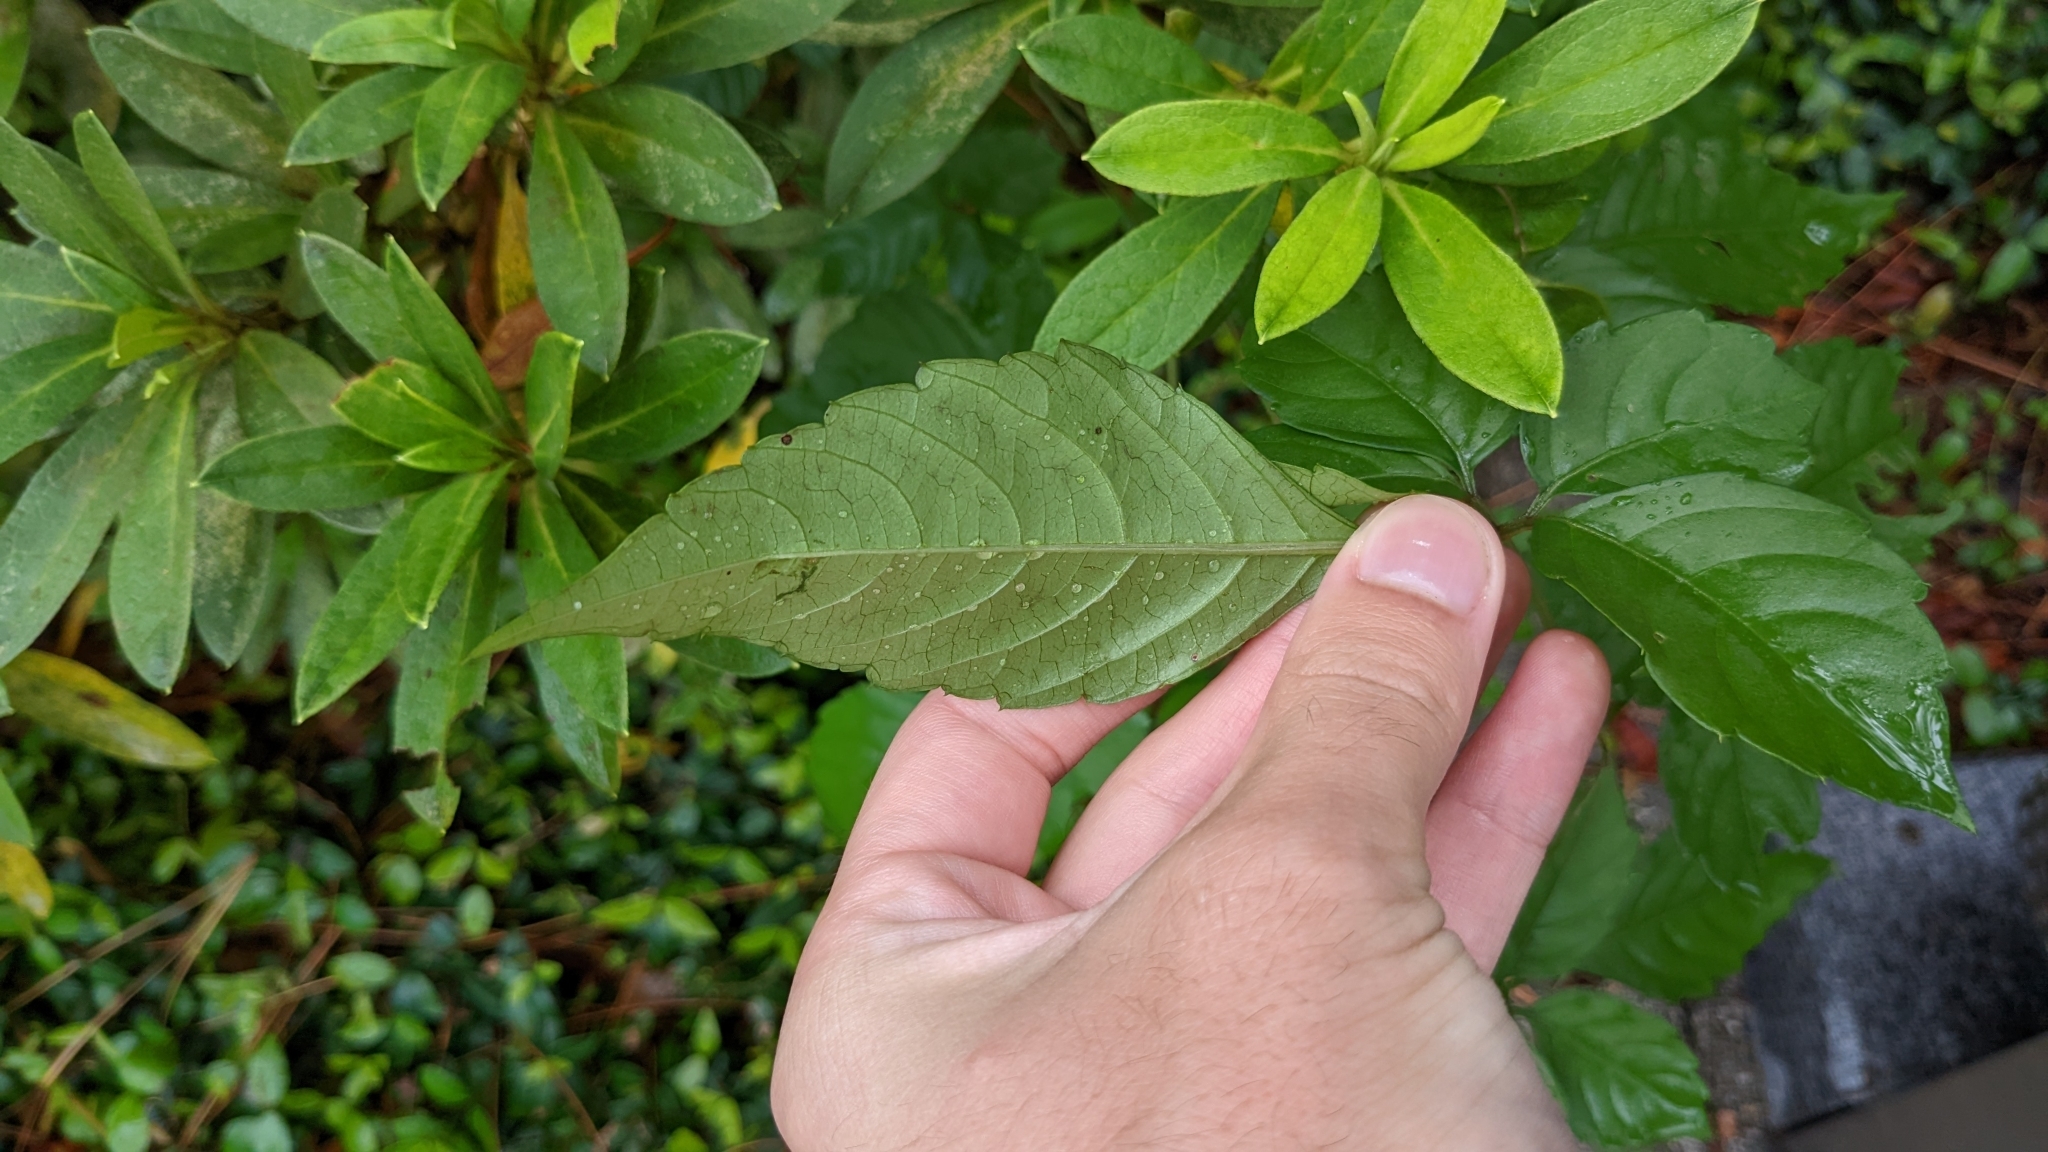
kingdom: Plantae
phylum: Tracheophyta
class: Magnoliopsida
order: Vitales
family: Vitaceae
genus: Causonis
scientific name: Causonis japonica
